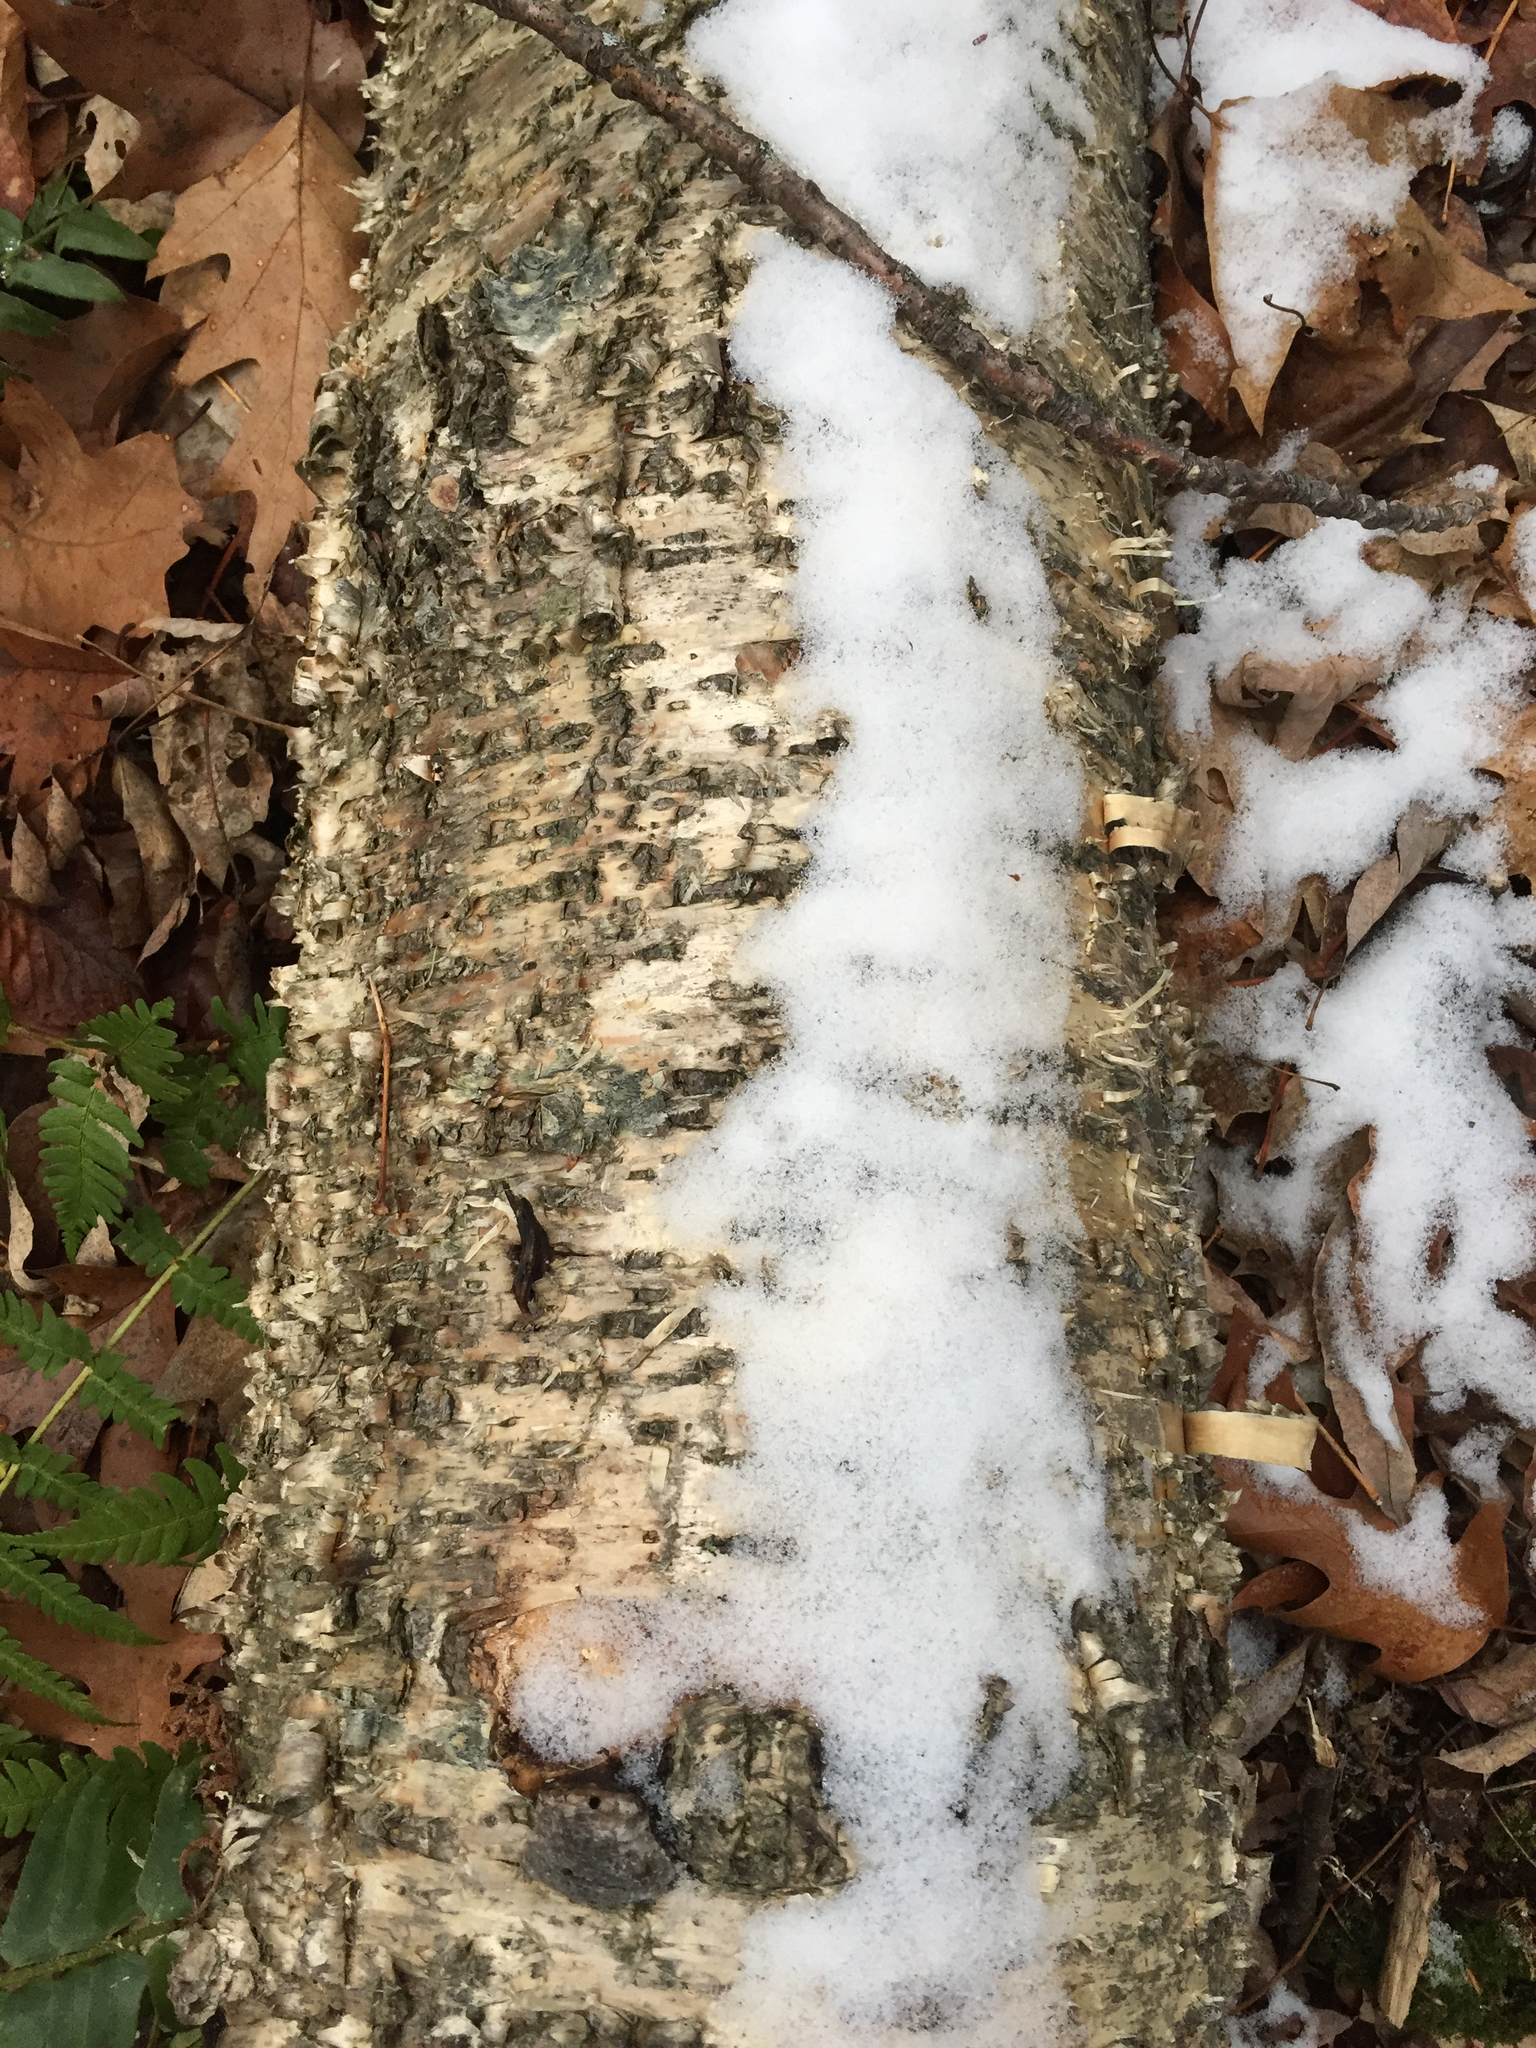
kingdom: Plantae
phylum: Tracheophyta
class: Magnoliopsida
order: Fagales
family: Betulaceae
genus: Betula
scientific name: Betula alleghaniensis
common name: Yellow birch
